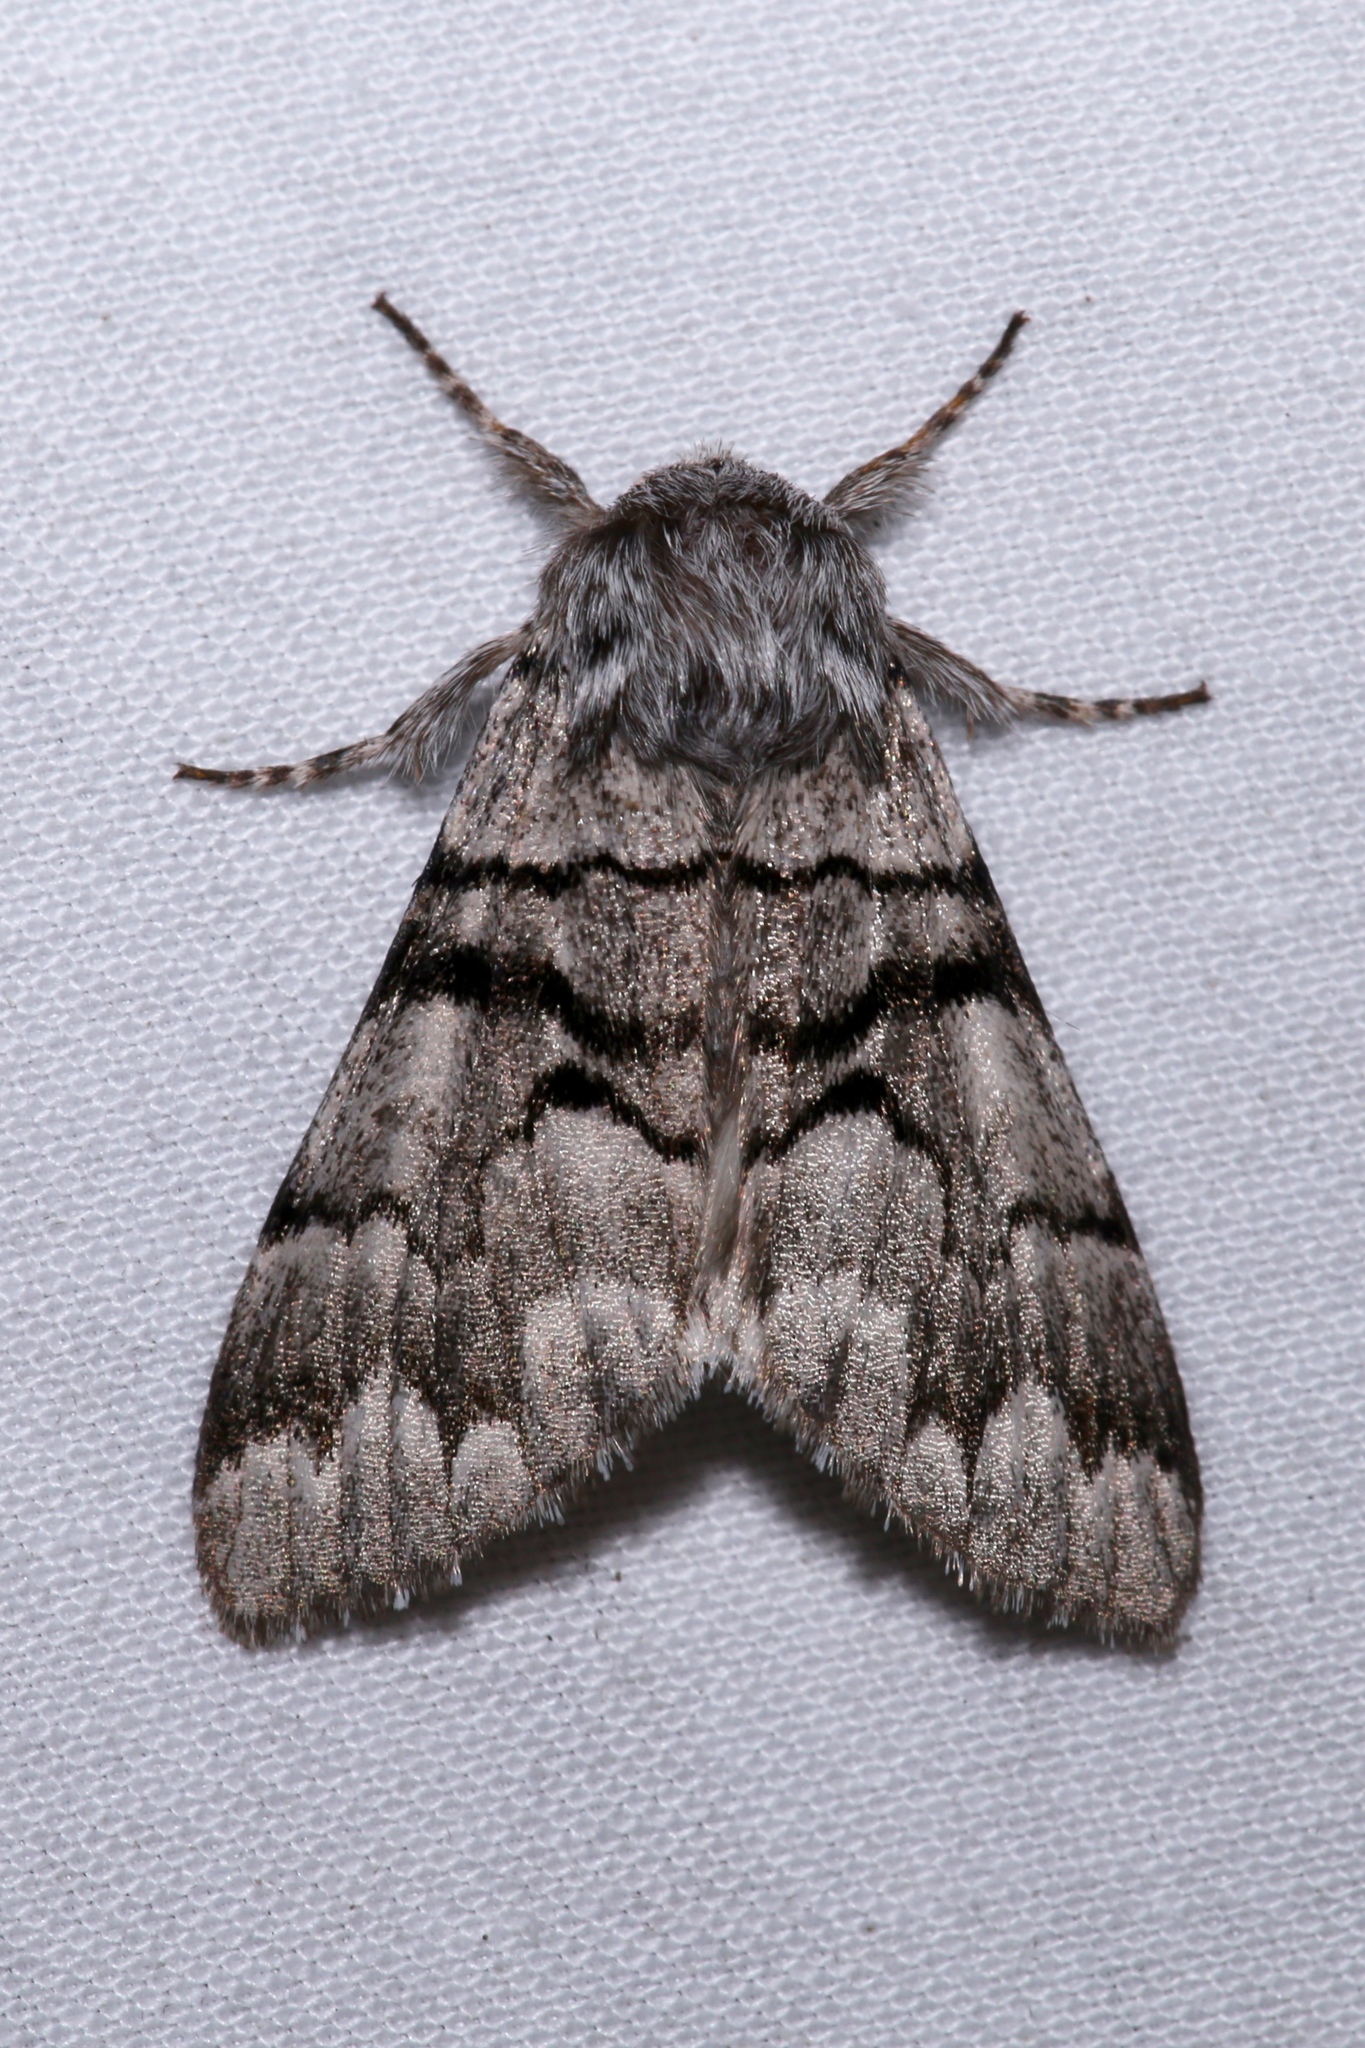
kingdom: Animalia
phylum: Arthropoda
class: Insecta
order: Lepidoptera
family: Noctuidae
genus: Panthea
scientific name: Panthea furcilla
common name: Eastern panthea moth
